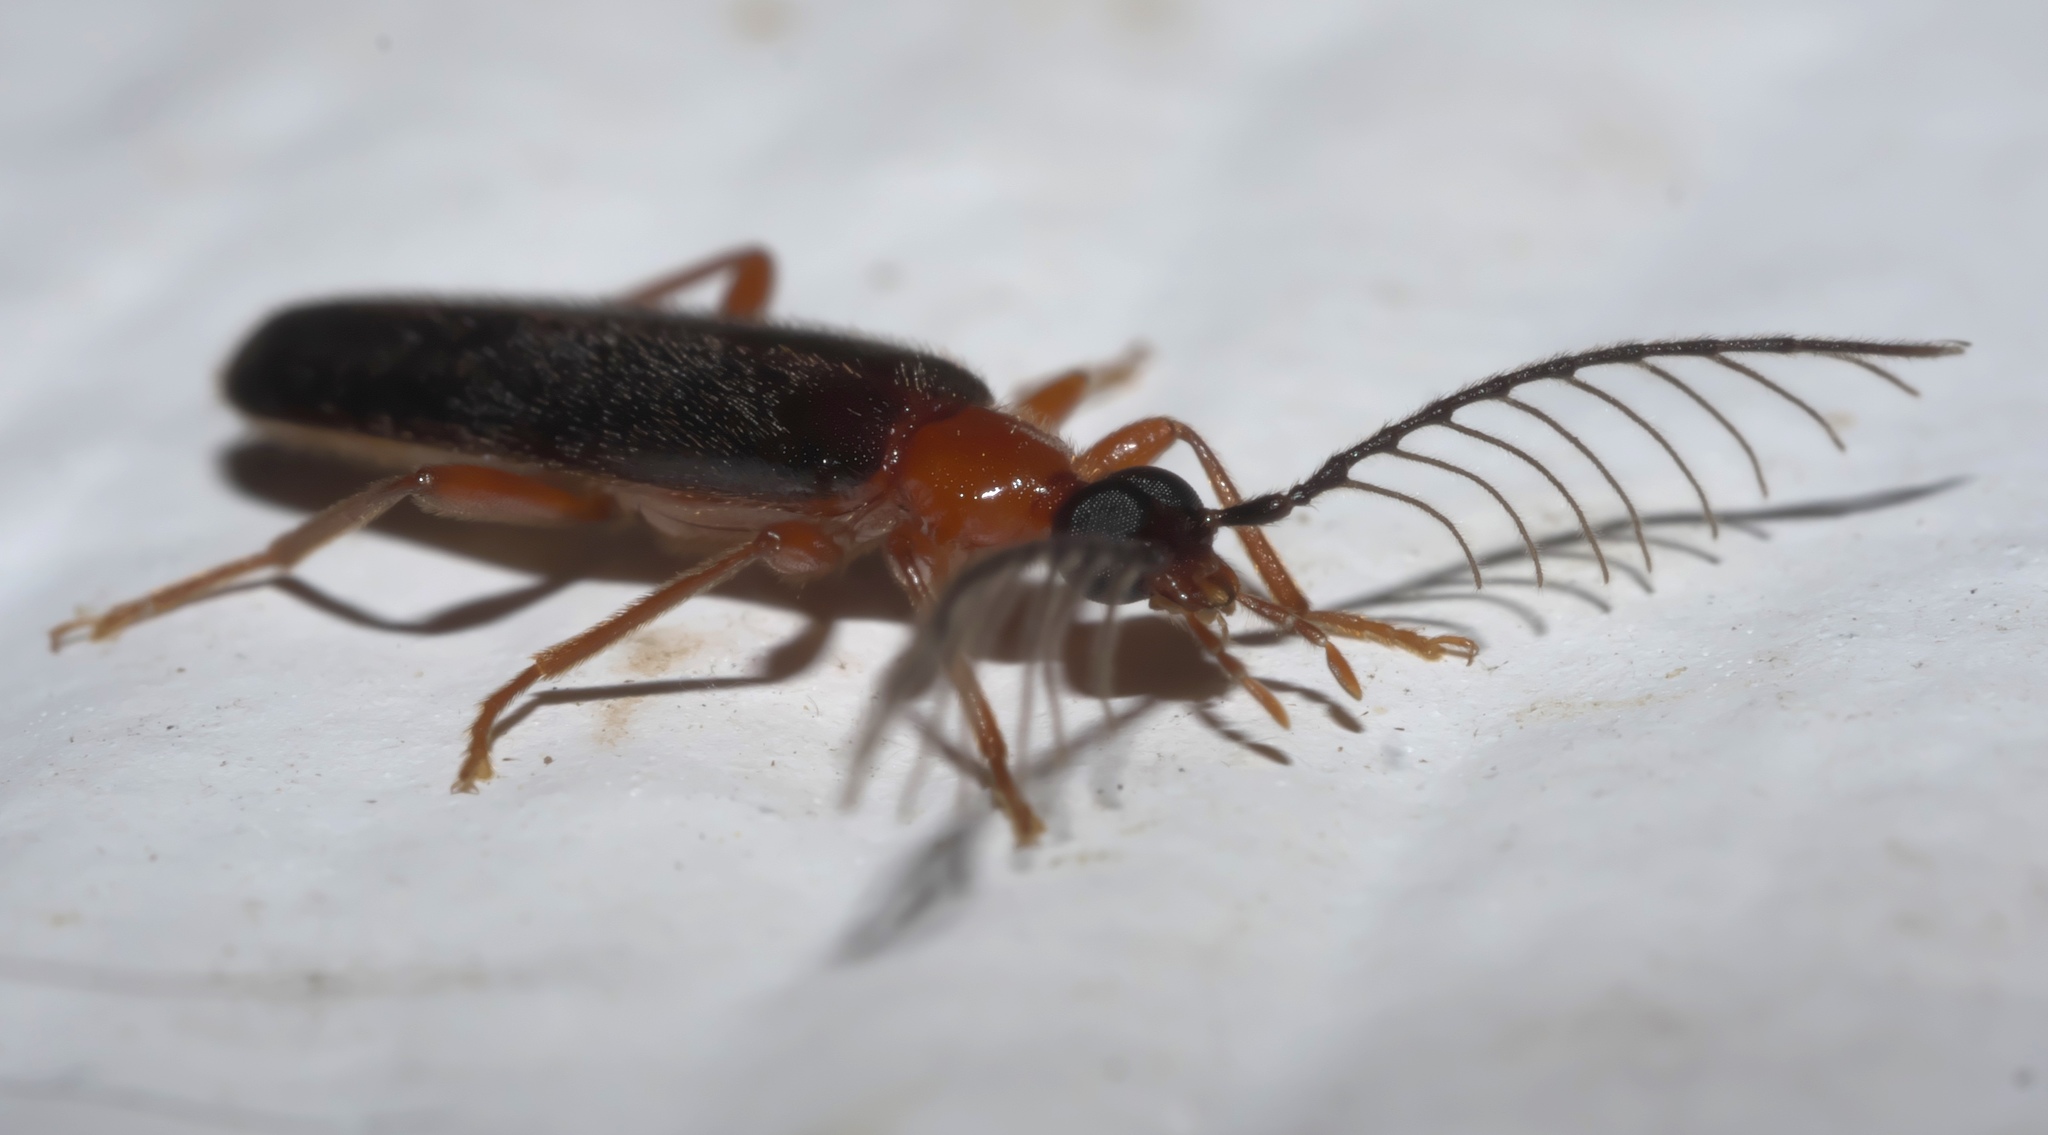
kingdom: Animalia
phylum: Arthropoda
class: Insecta
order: Coleoptera
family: Pyrochroidae
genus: Dendroides
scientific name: Dendroides canadensis
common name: Canada fire-colored beetle
